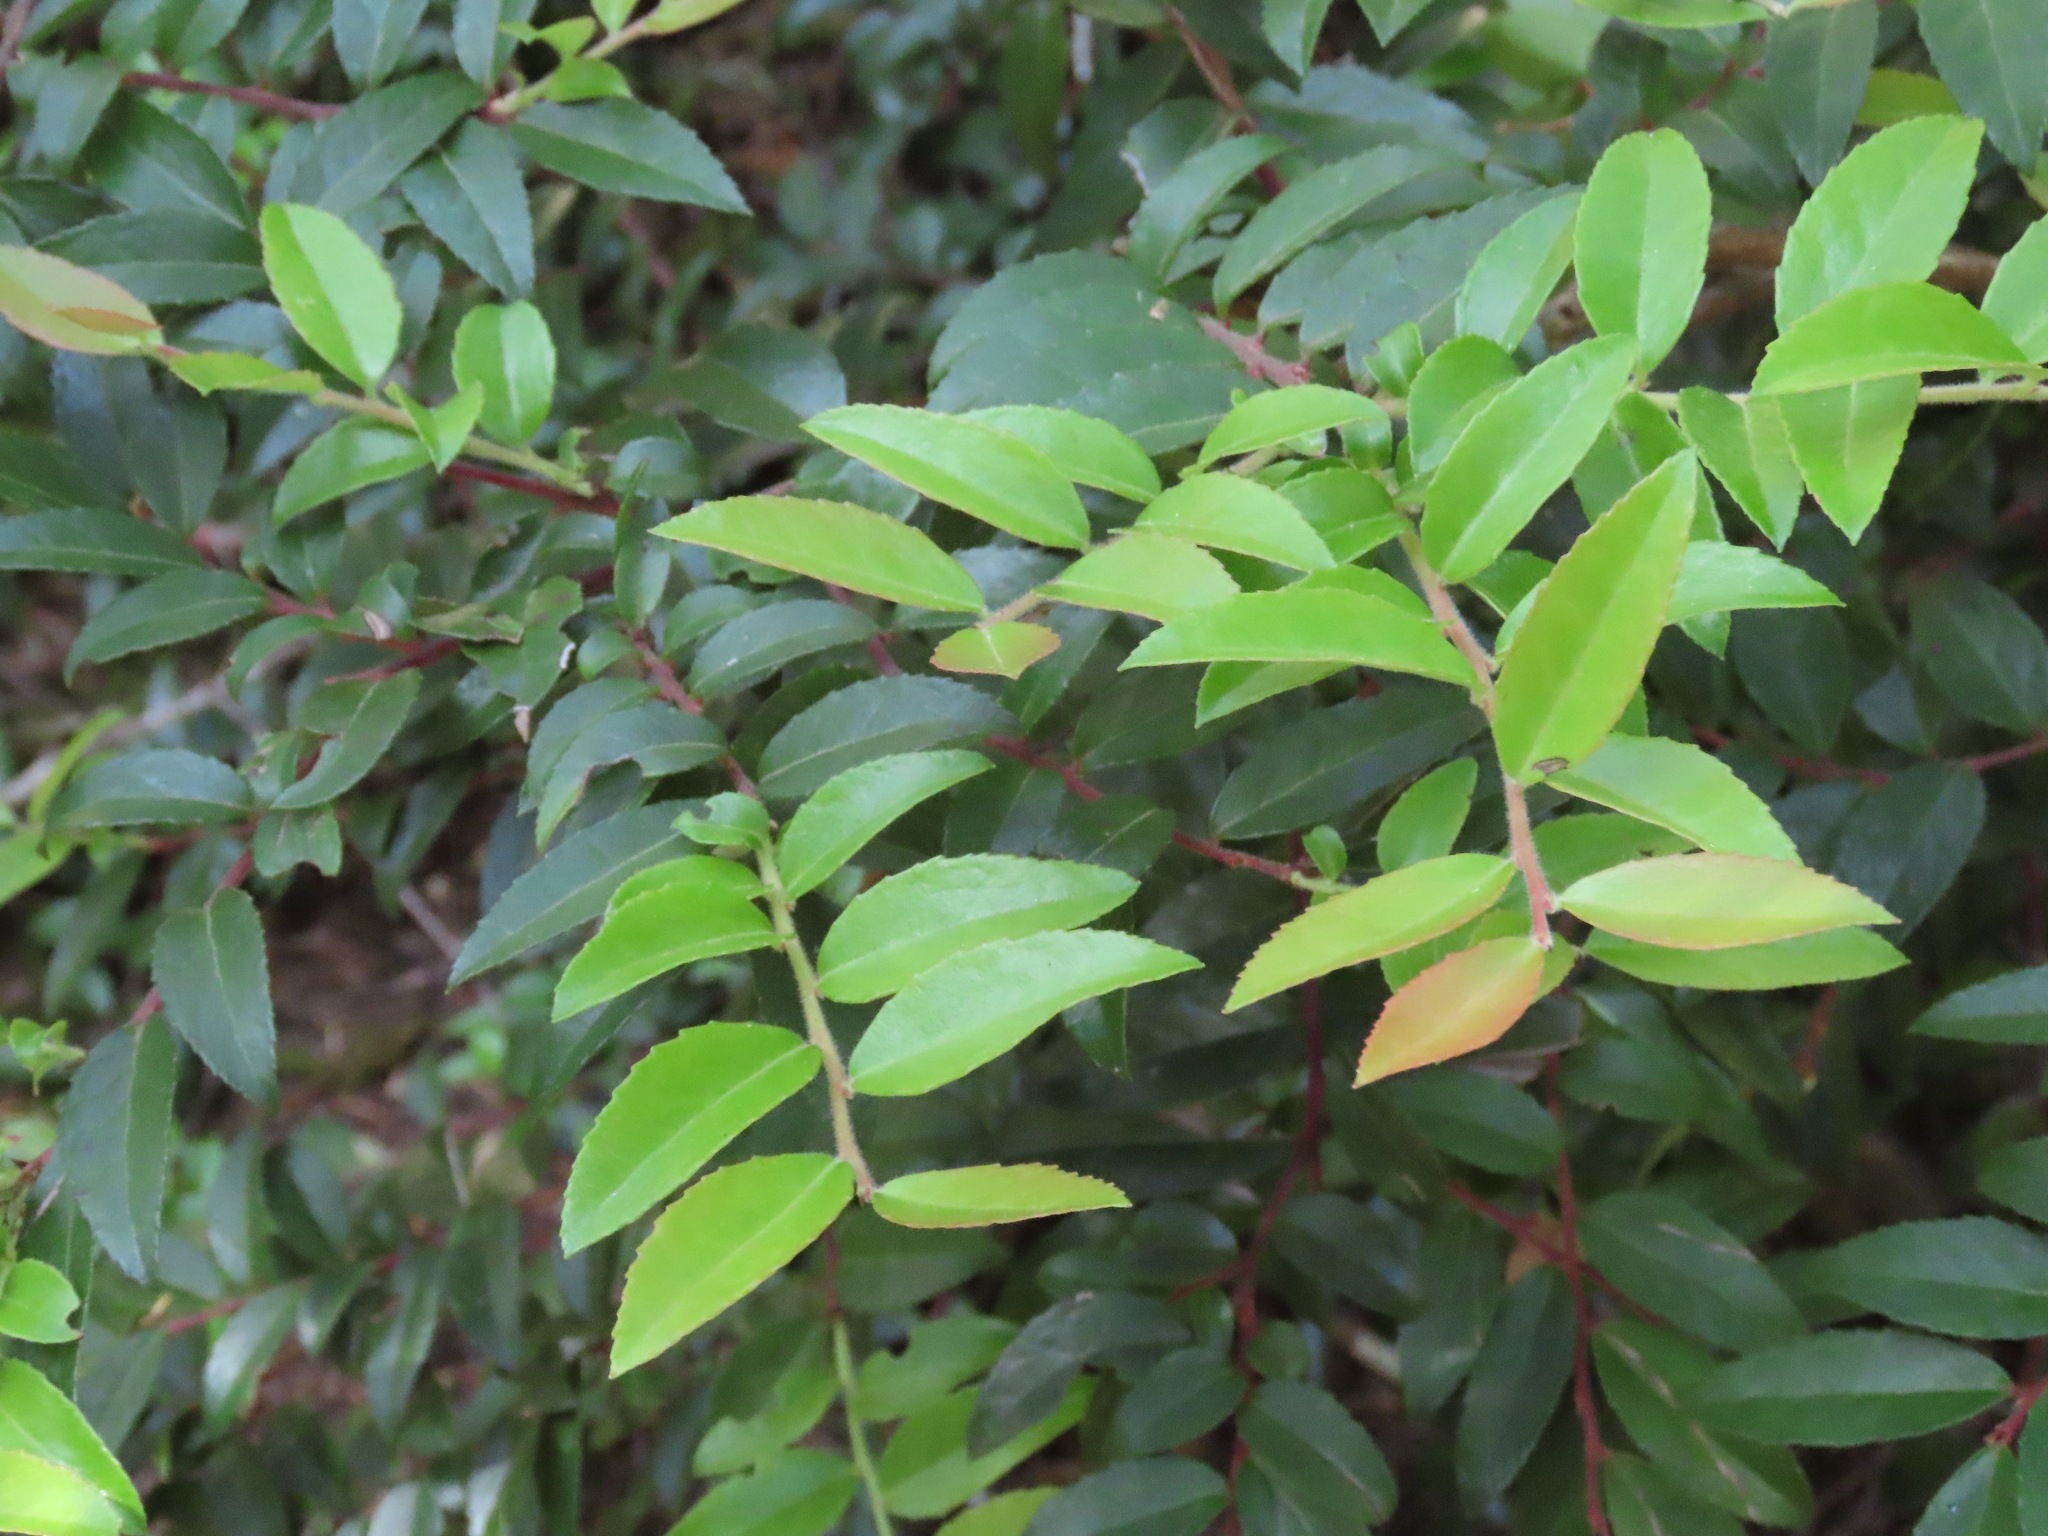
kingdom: Plantae
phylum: Tracheophyta
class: Magnoliopsida
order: Ericales
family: Ericaceae
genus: Vaccinium
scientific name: Vaccinium ovatum
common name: California-huckleberry
